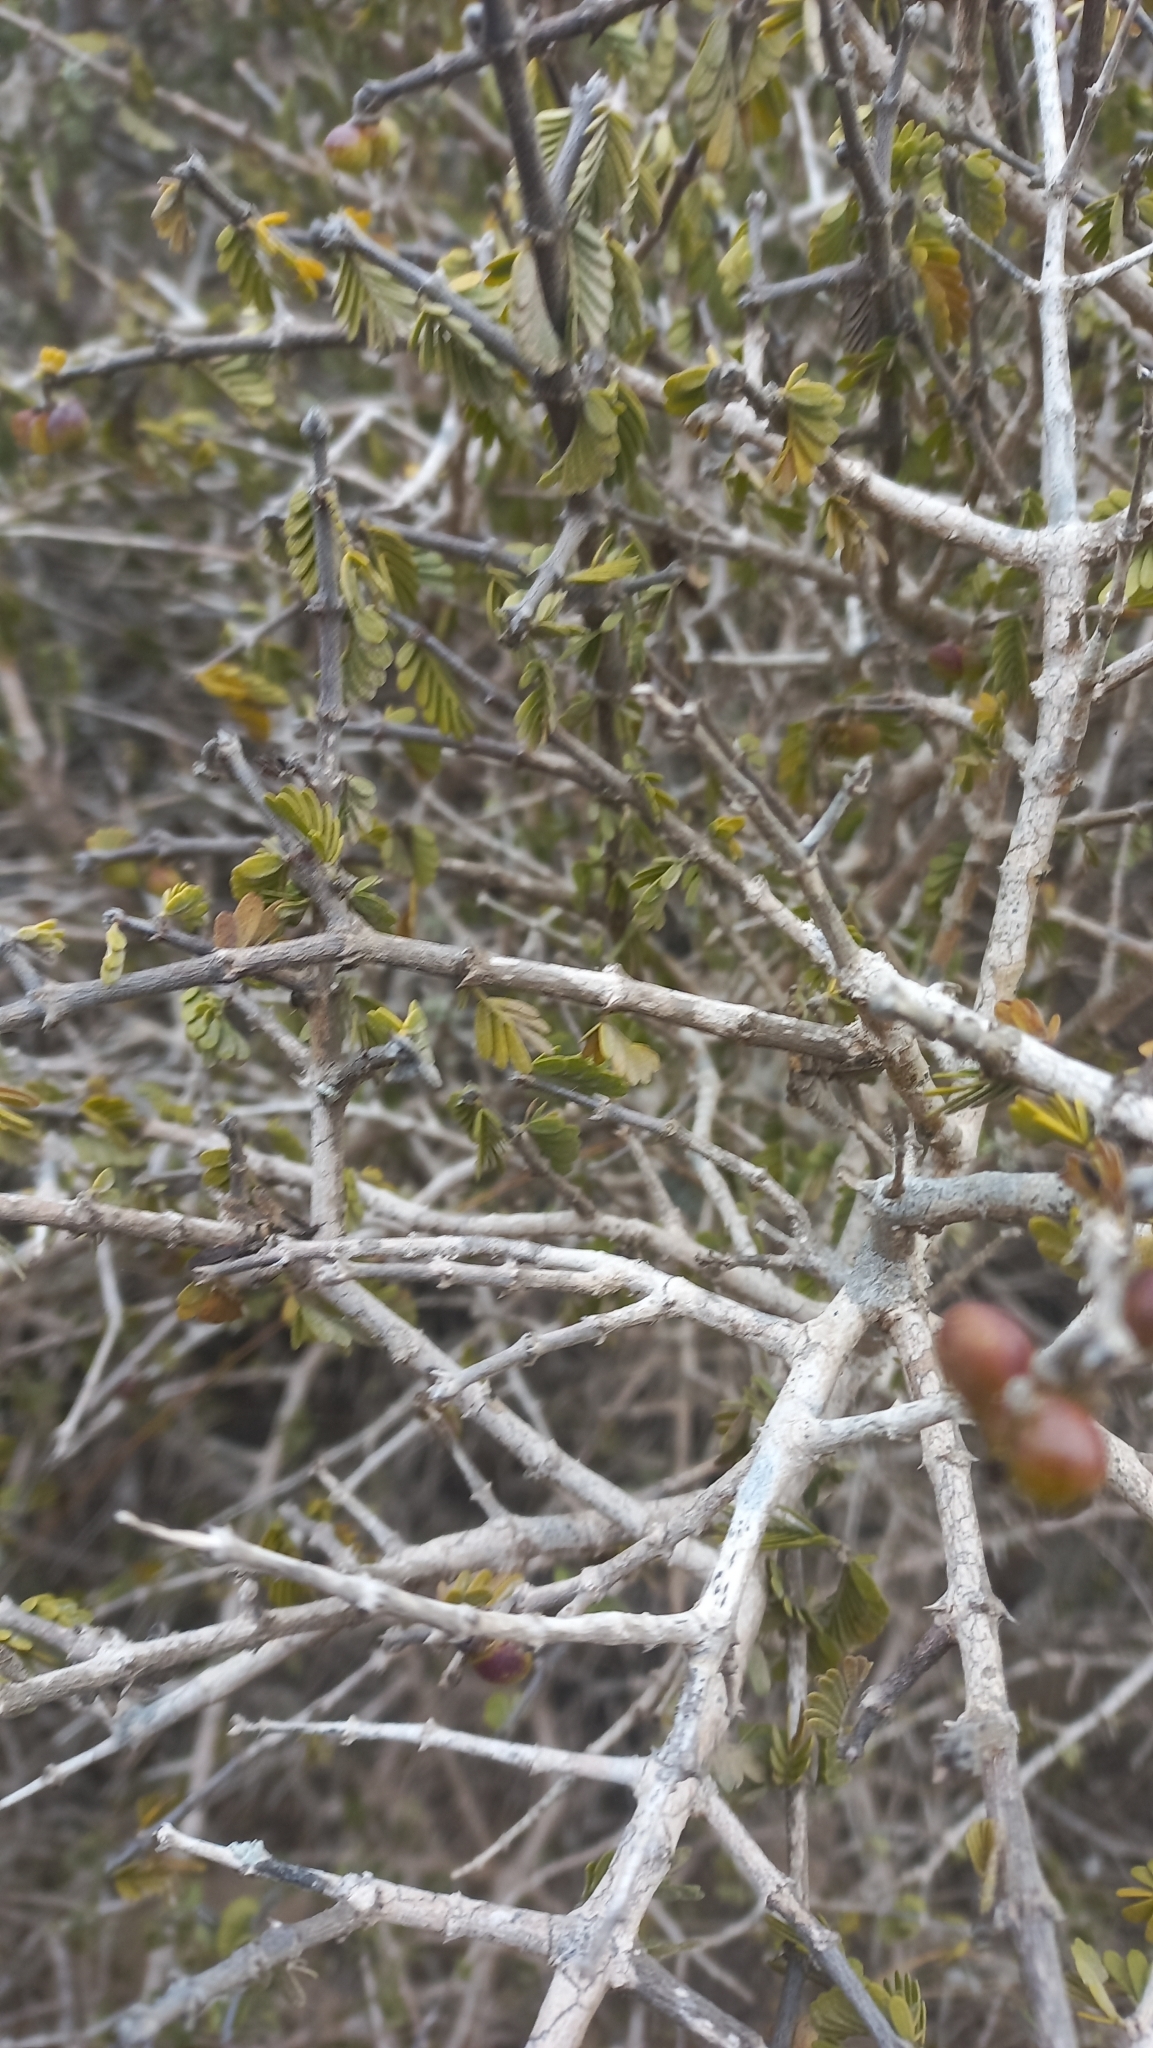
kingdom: Plantae
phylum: Tracheophyta
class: Magnoliopsida
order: Zygophyllales
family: Zygophyllaceae
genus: Porlieria
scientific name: Porlieria chilensis
